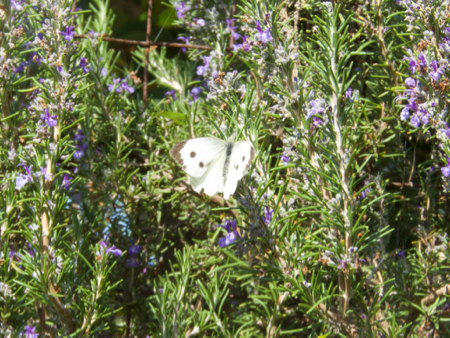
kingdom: Animalia
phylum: Arthropoda
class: Insecta
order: Lepidoptera
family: Pieridae
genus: Pieris
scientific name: Pieris brassicae
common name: Large white
